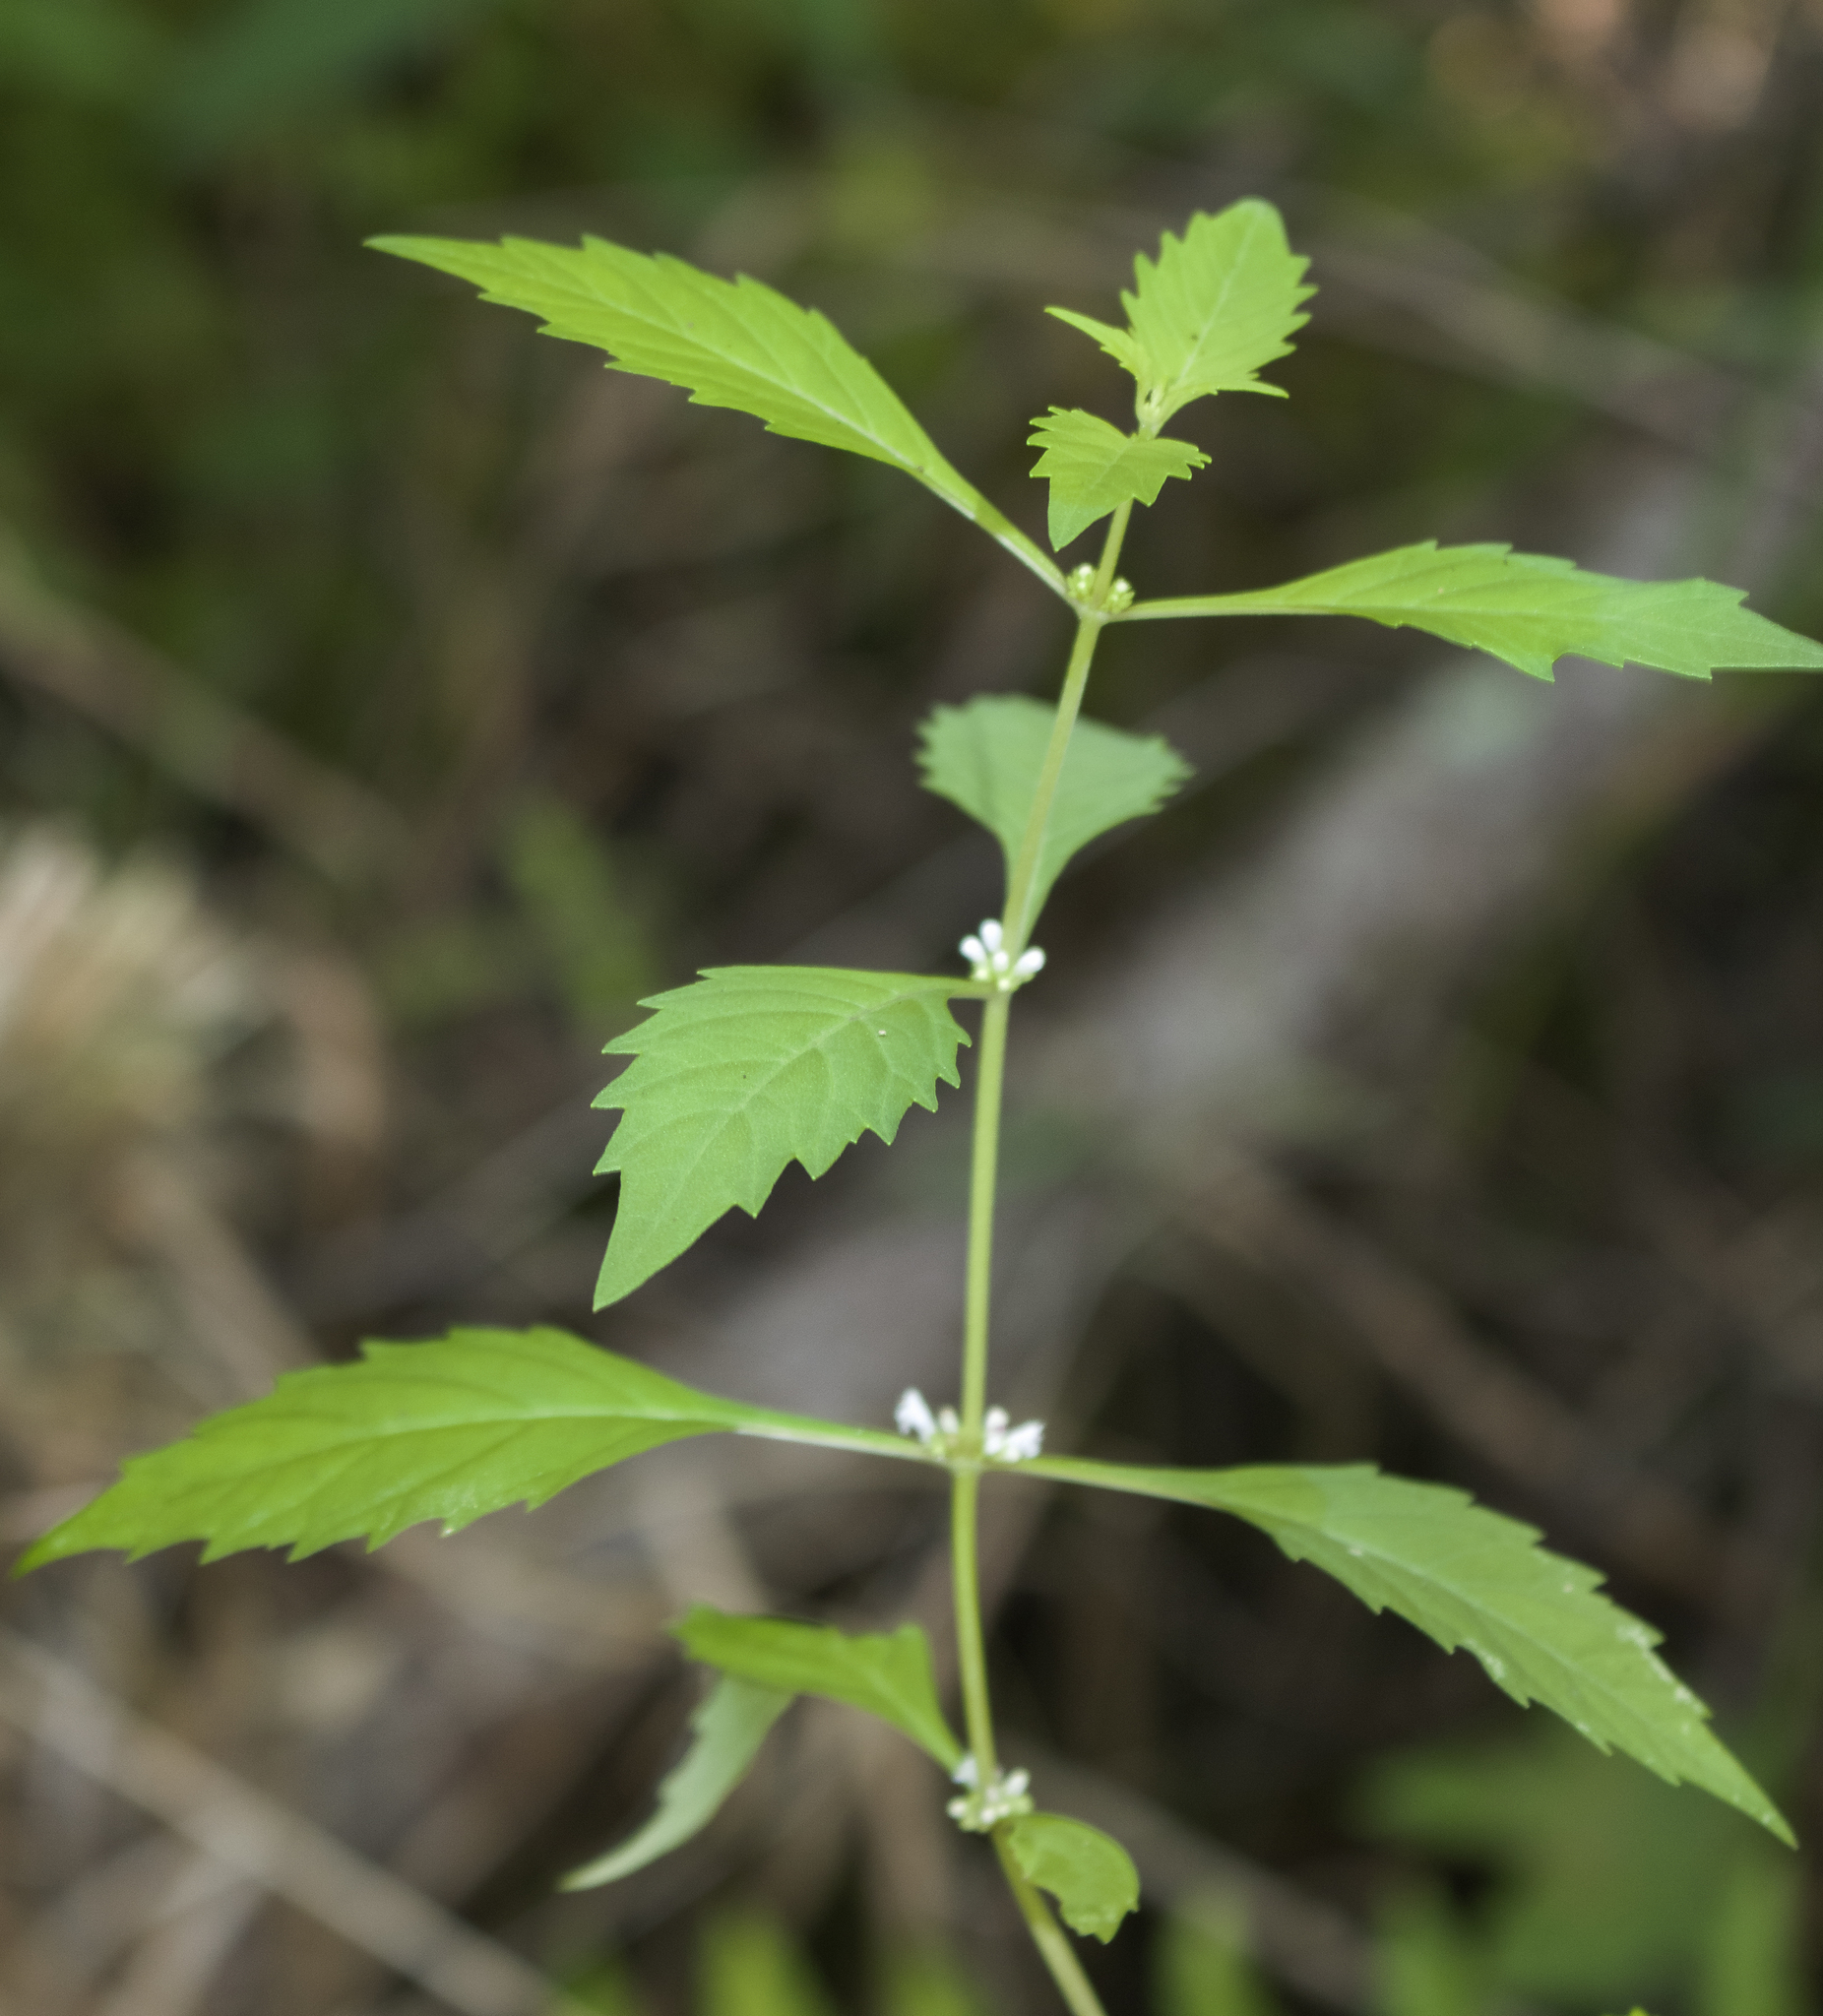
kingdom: Plantae
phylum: Tracheophyta
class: Magnoliopsida
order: Lamiales
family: Lamiaceae
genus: Lycopus
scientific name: Lycopus uniflorus
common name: Northern bugleweed
